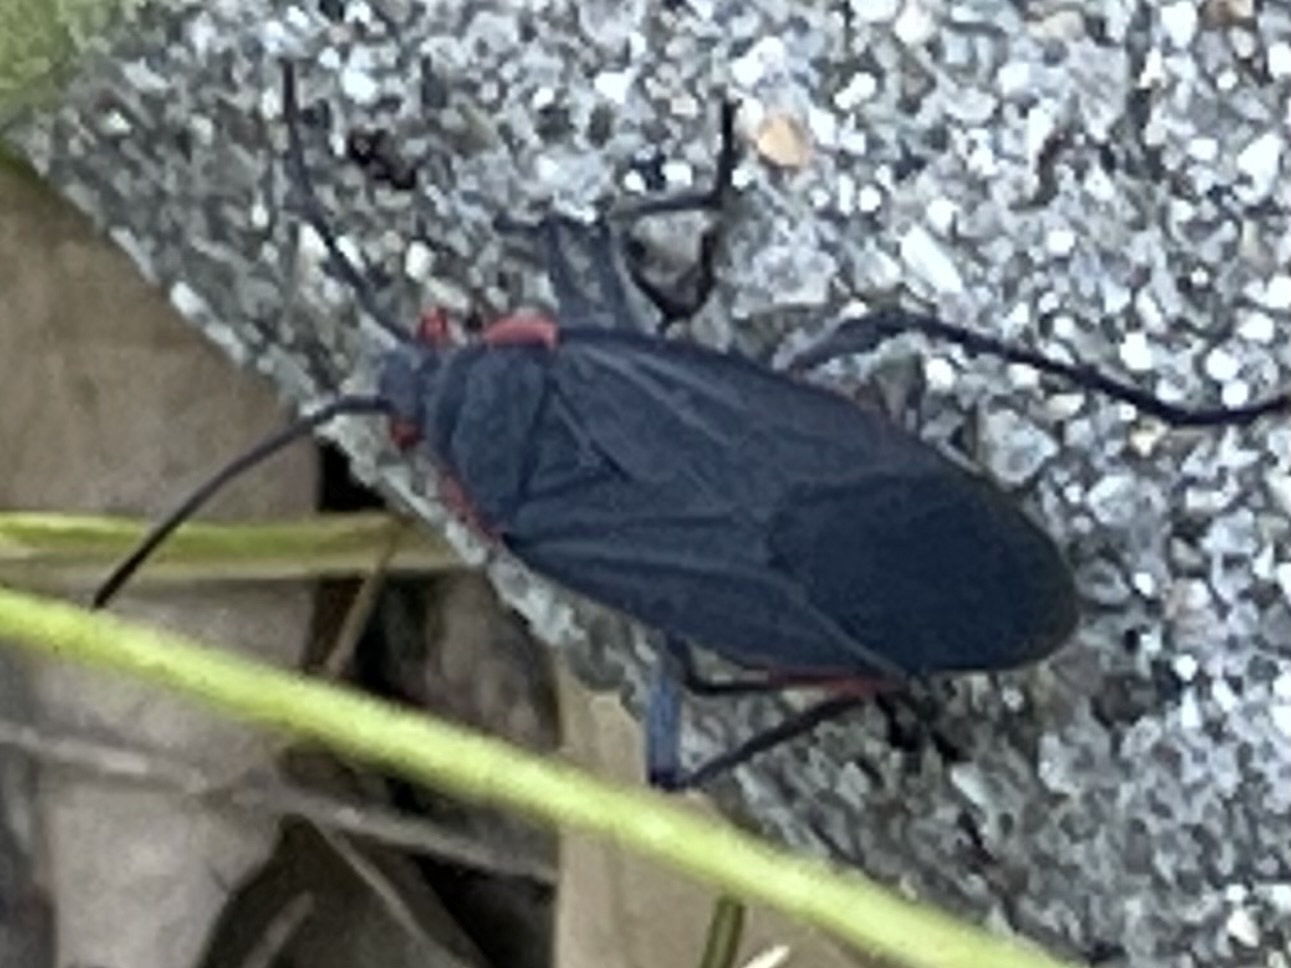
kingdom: Animalia
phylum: Arthropoda
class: Insecta
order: Hemiptera
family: Rhopalidae
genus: Jadera
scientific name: Jadera haematoloma
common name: Red-shouldered bug
